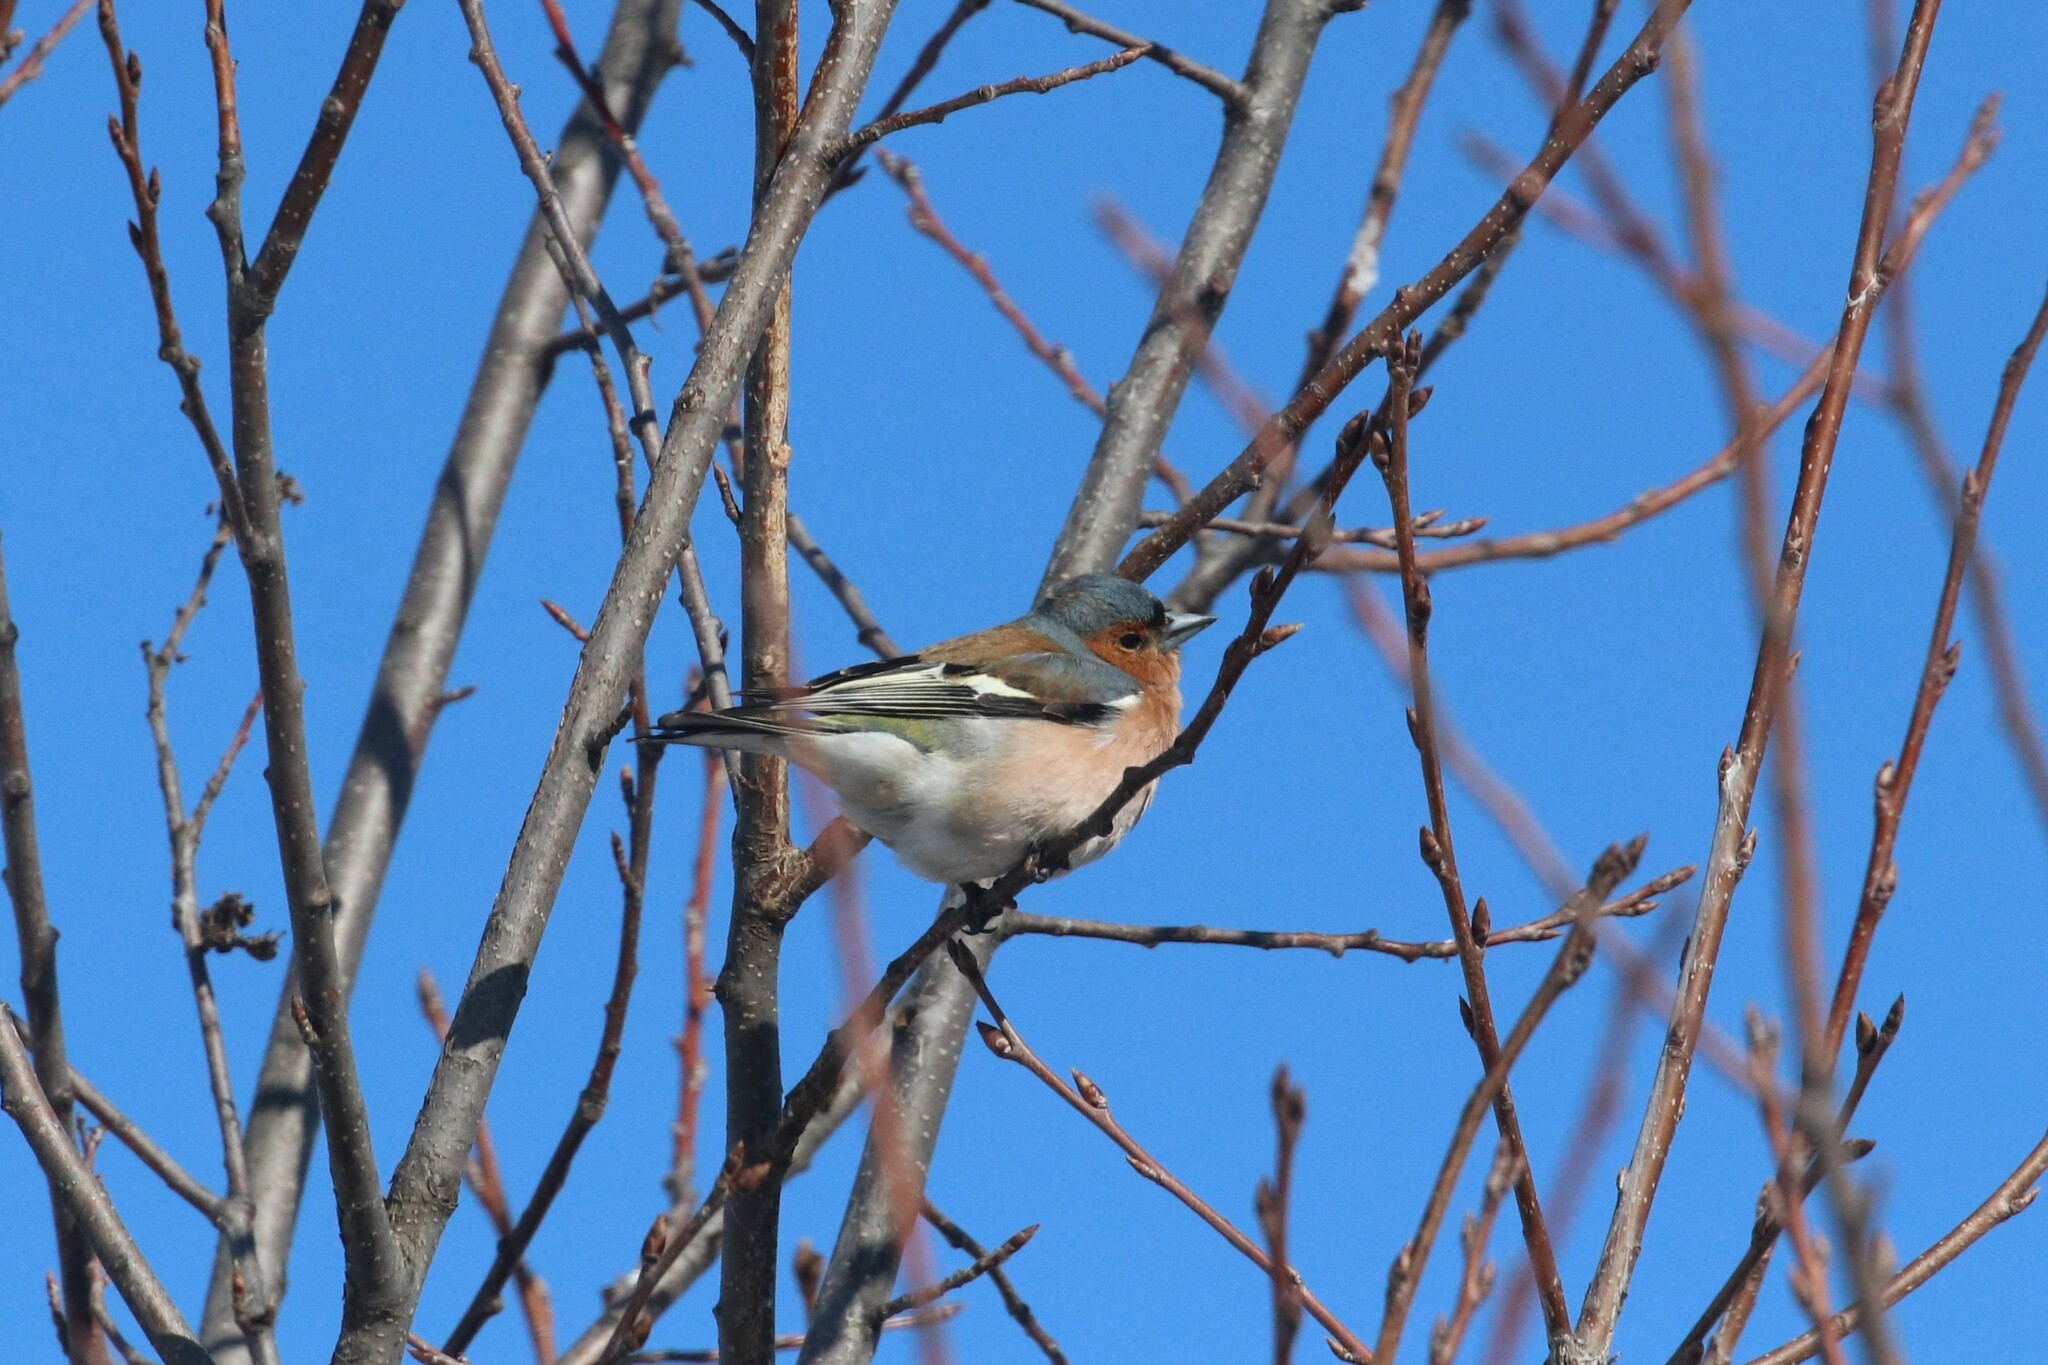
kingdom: Animalia
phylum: Chordata
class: Aves
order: Passeriformes
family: Fringillidae
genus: Fringilla
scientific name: Fringilla coelebs
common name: Common chaffinch
